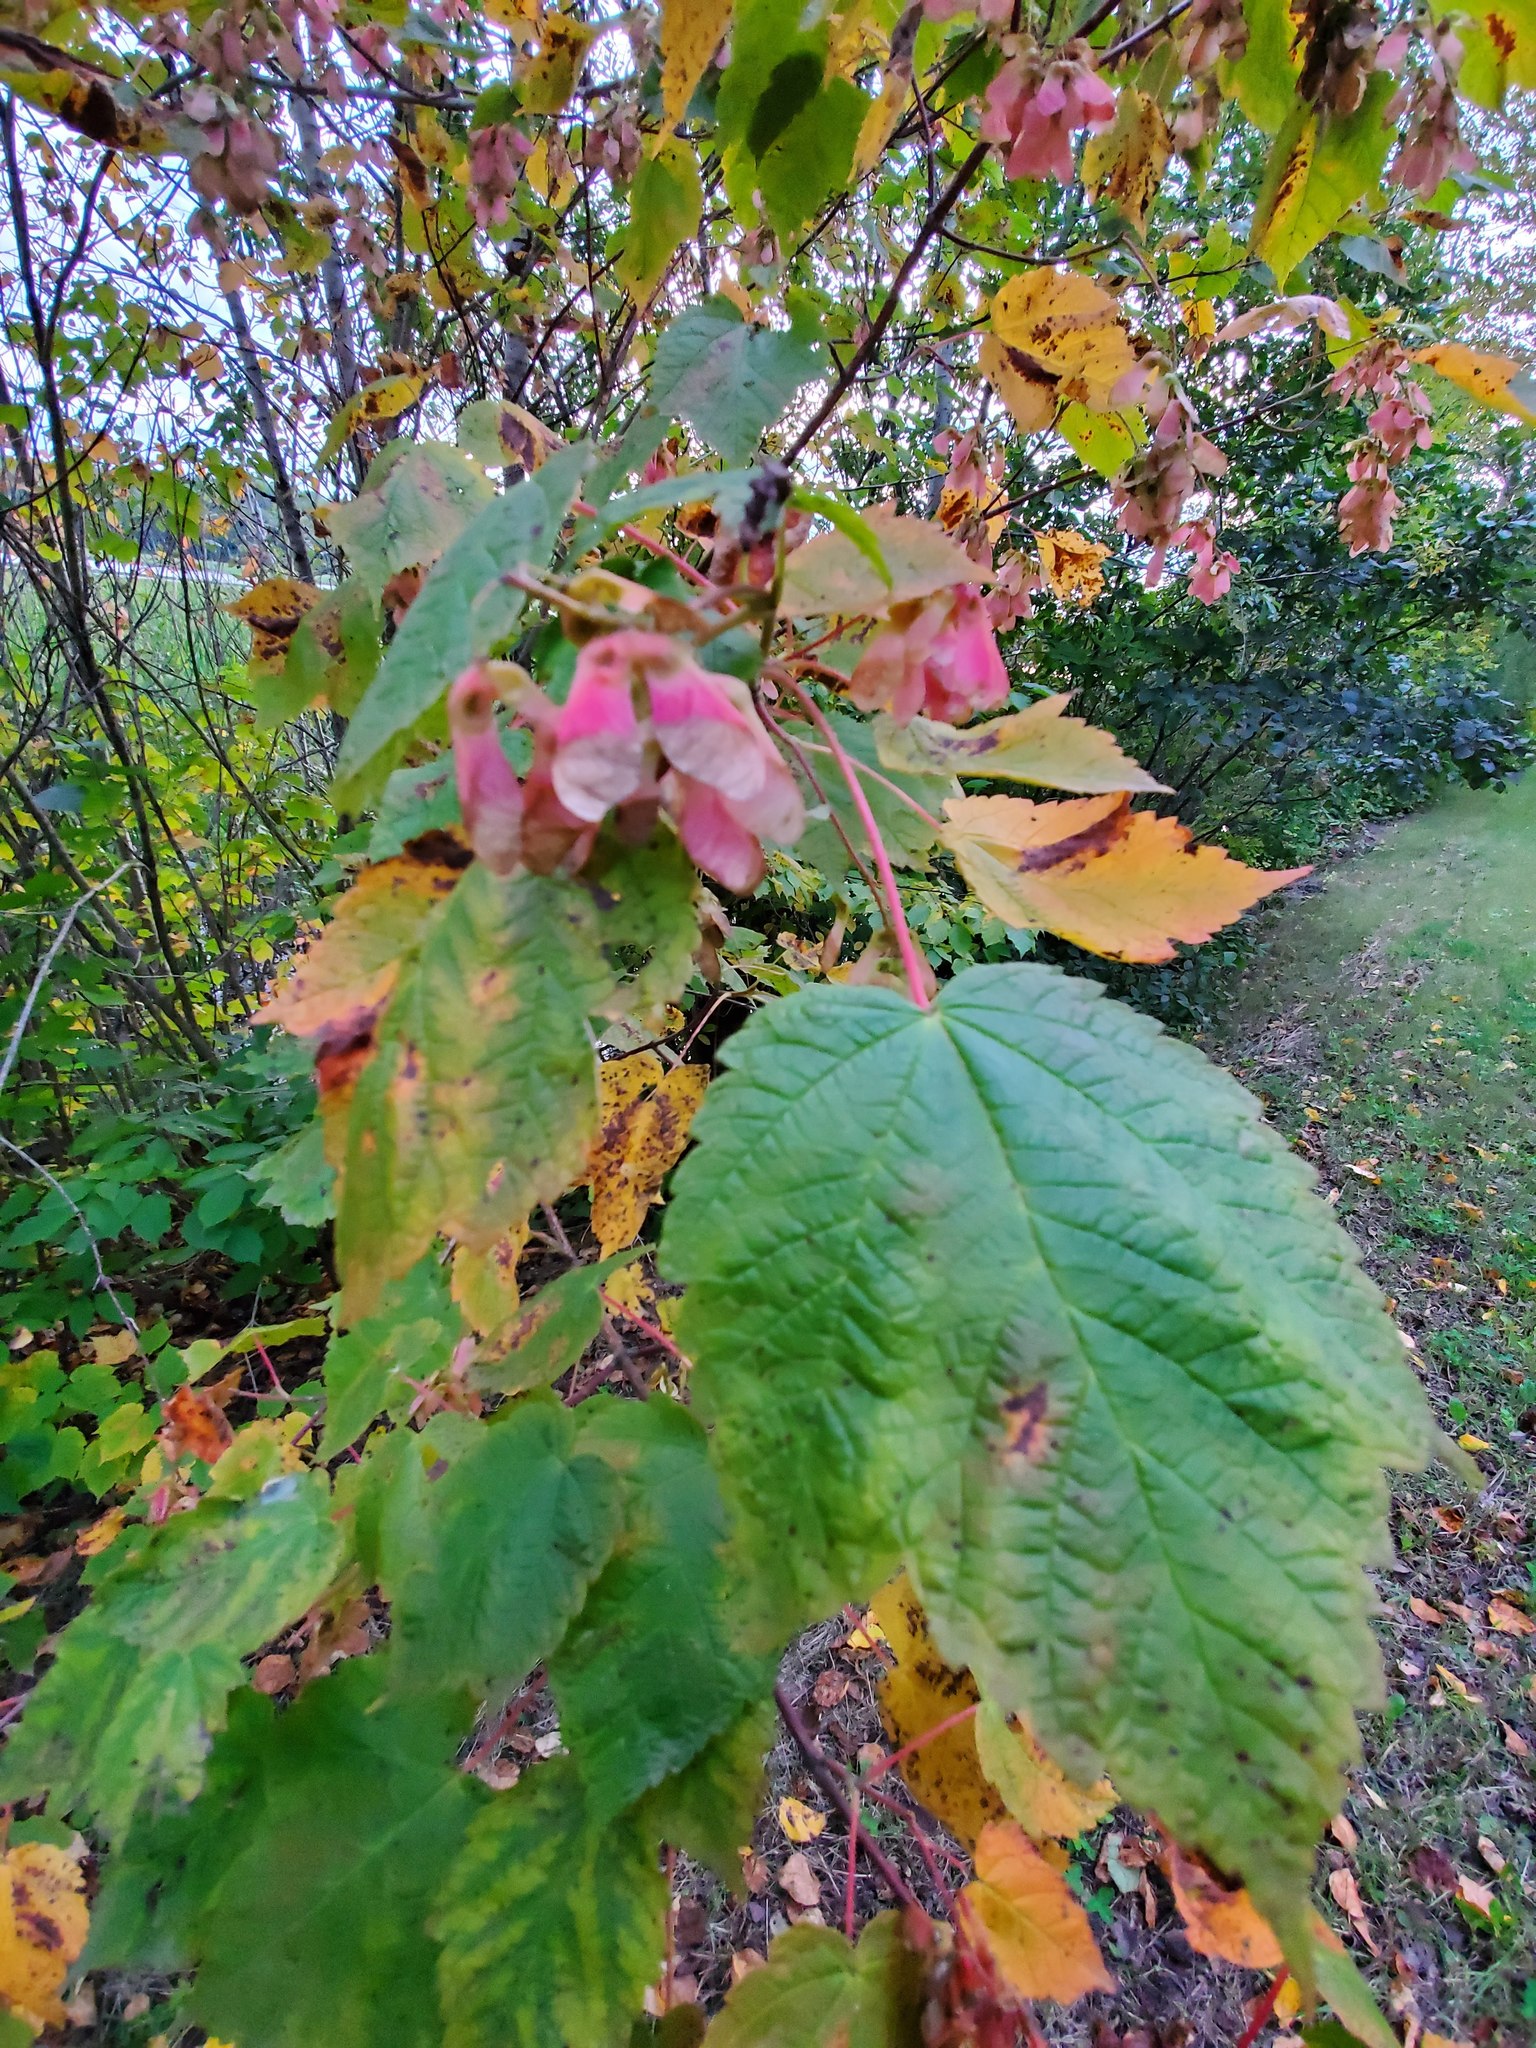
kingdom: Plantae
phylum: Tracheophyta
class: Magnoliopsida
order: Sapindales
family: Sapindaceae
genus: Acer
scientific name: Acer spicatum
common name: Mountain maple
